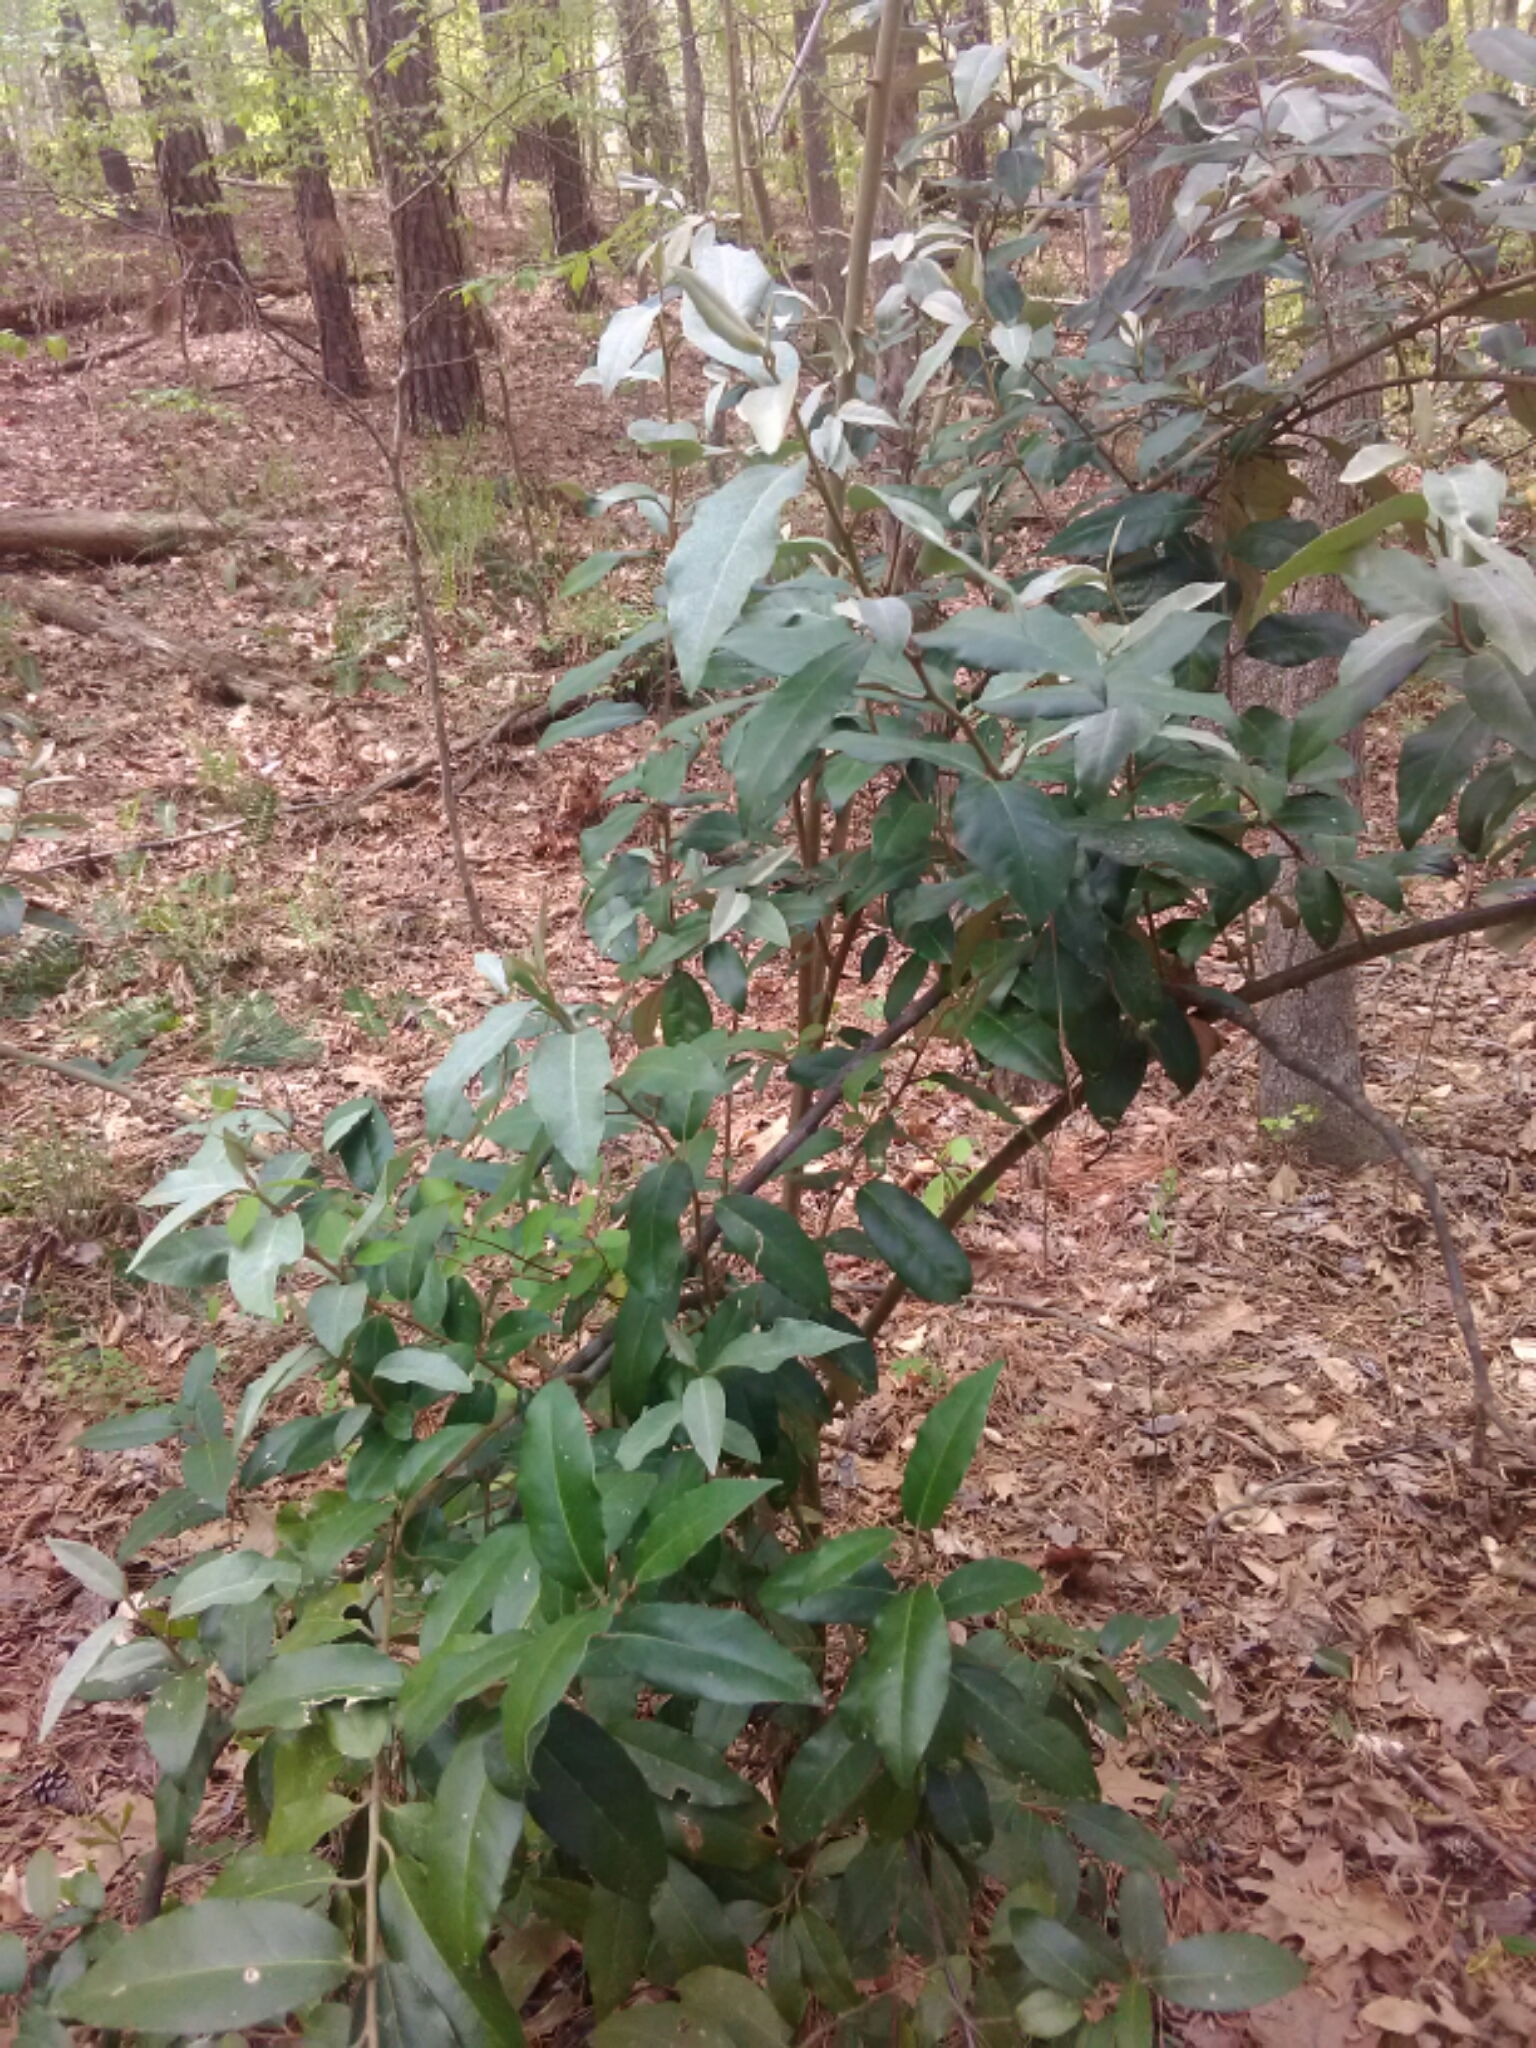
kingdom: Plantae
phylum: Tracheophyta
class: Magnoliopsida
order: Rosales
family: Elaeagnaceae
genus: Elaeagnus
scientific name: Elaeagnus umbellata
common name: Autumn olive
